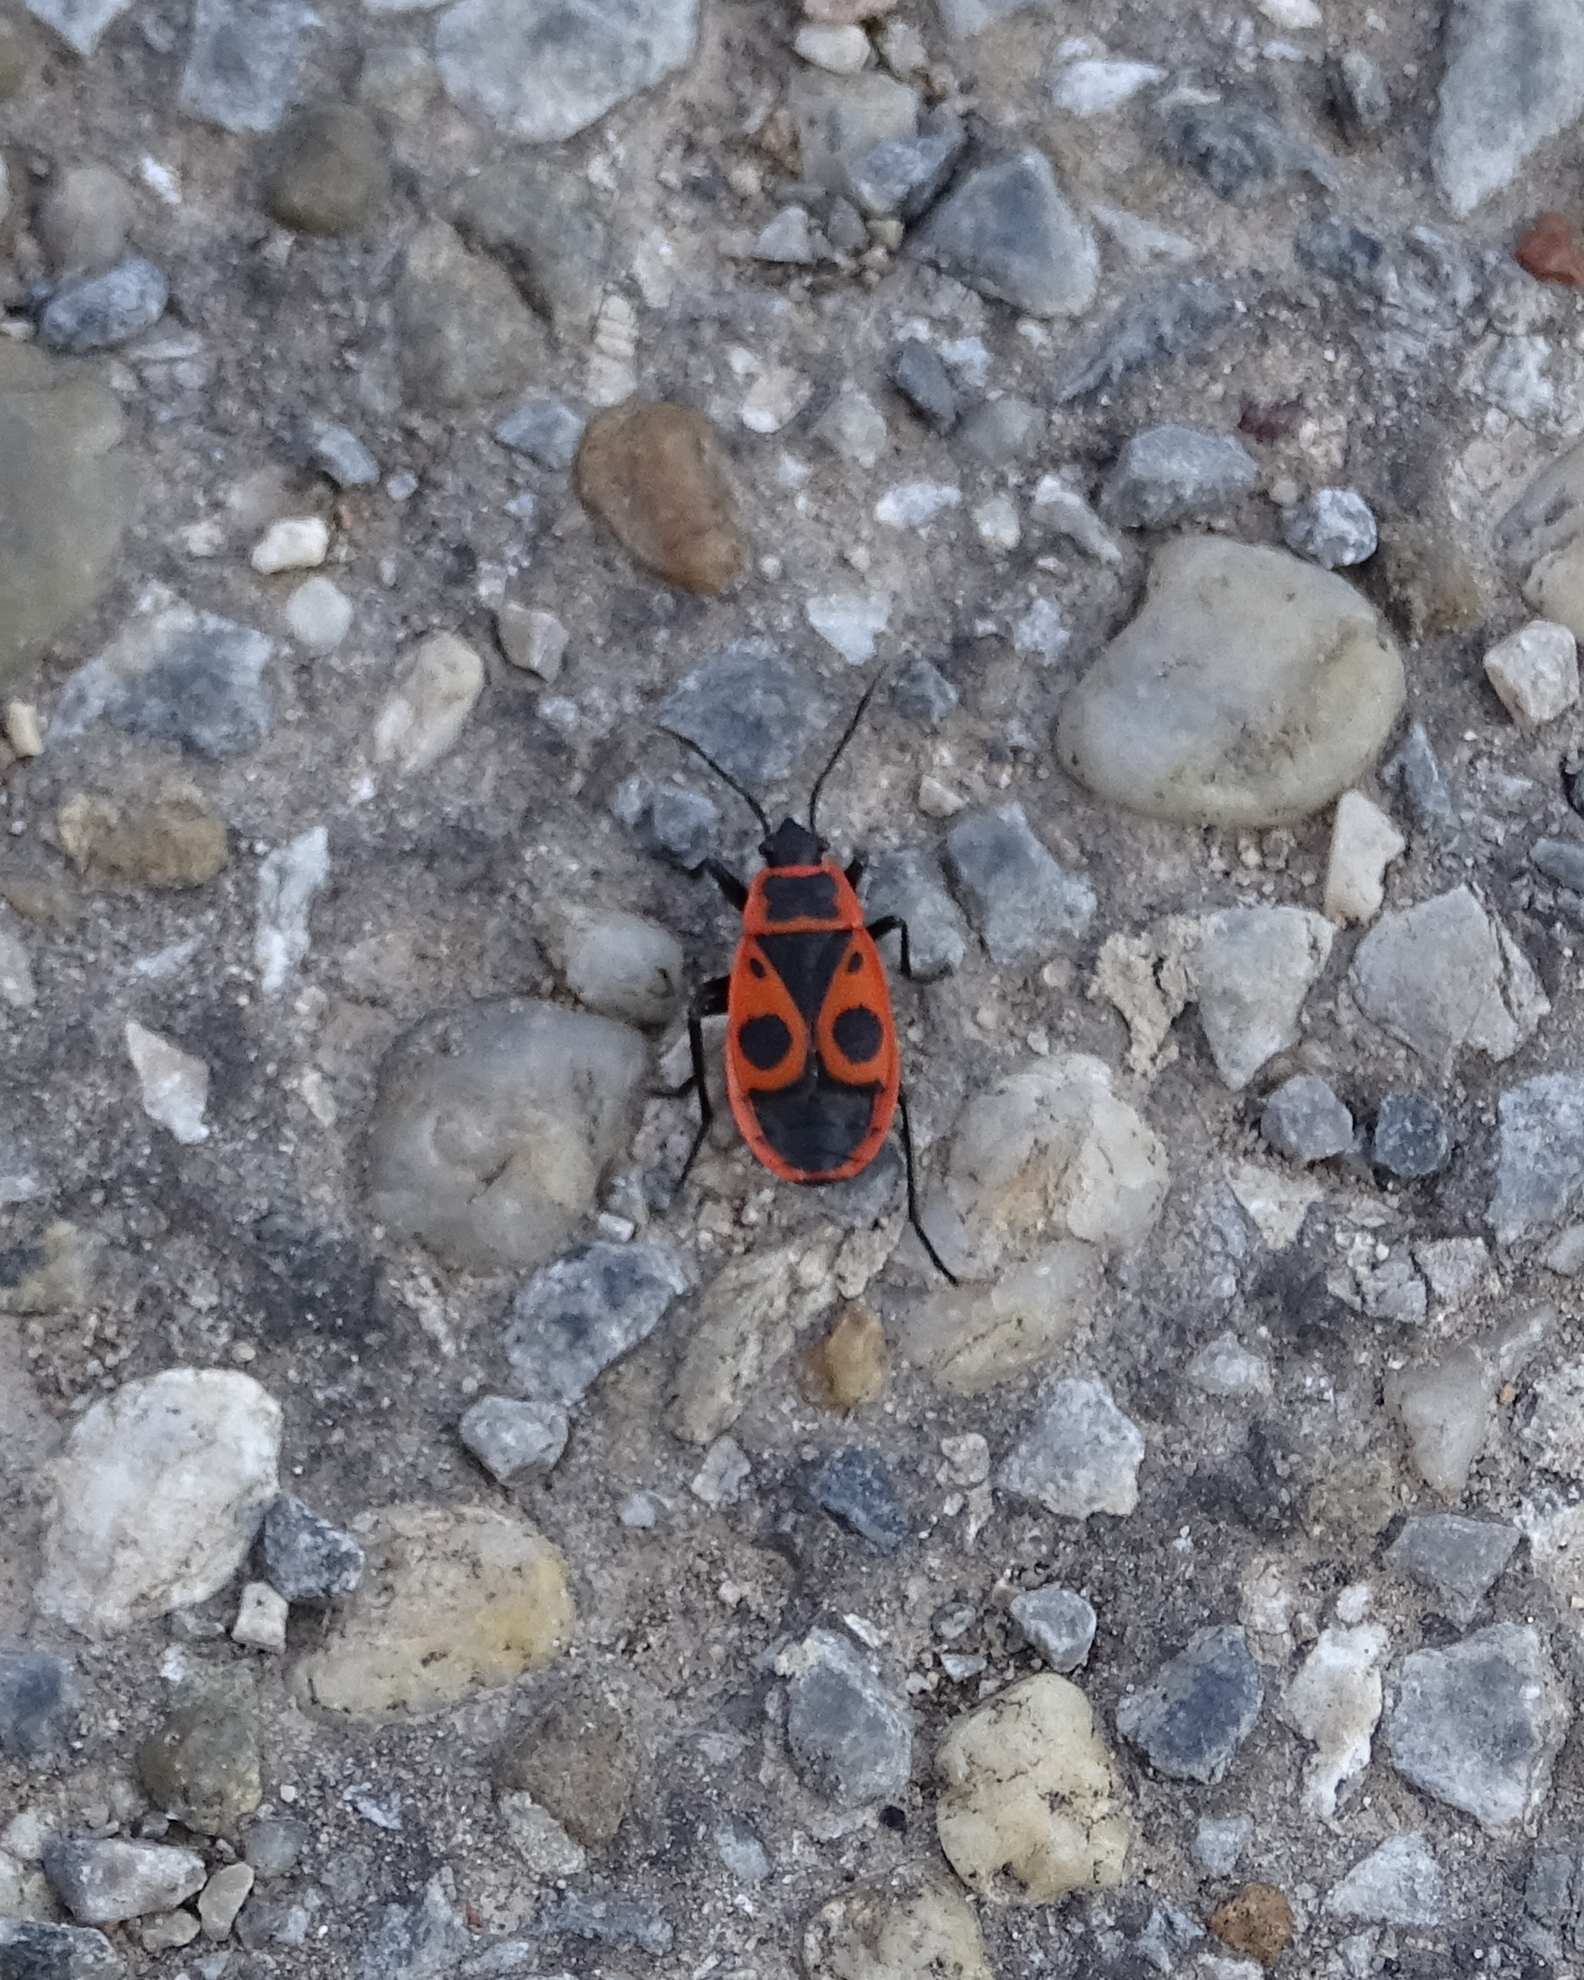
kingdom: Animalia
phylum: Arthropoda
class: Insecta
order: Hemiptera
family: Pyrrhocoridae
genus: Pyrrhocoris
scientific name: Pyrrhocoris apterus
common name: Firebug
